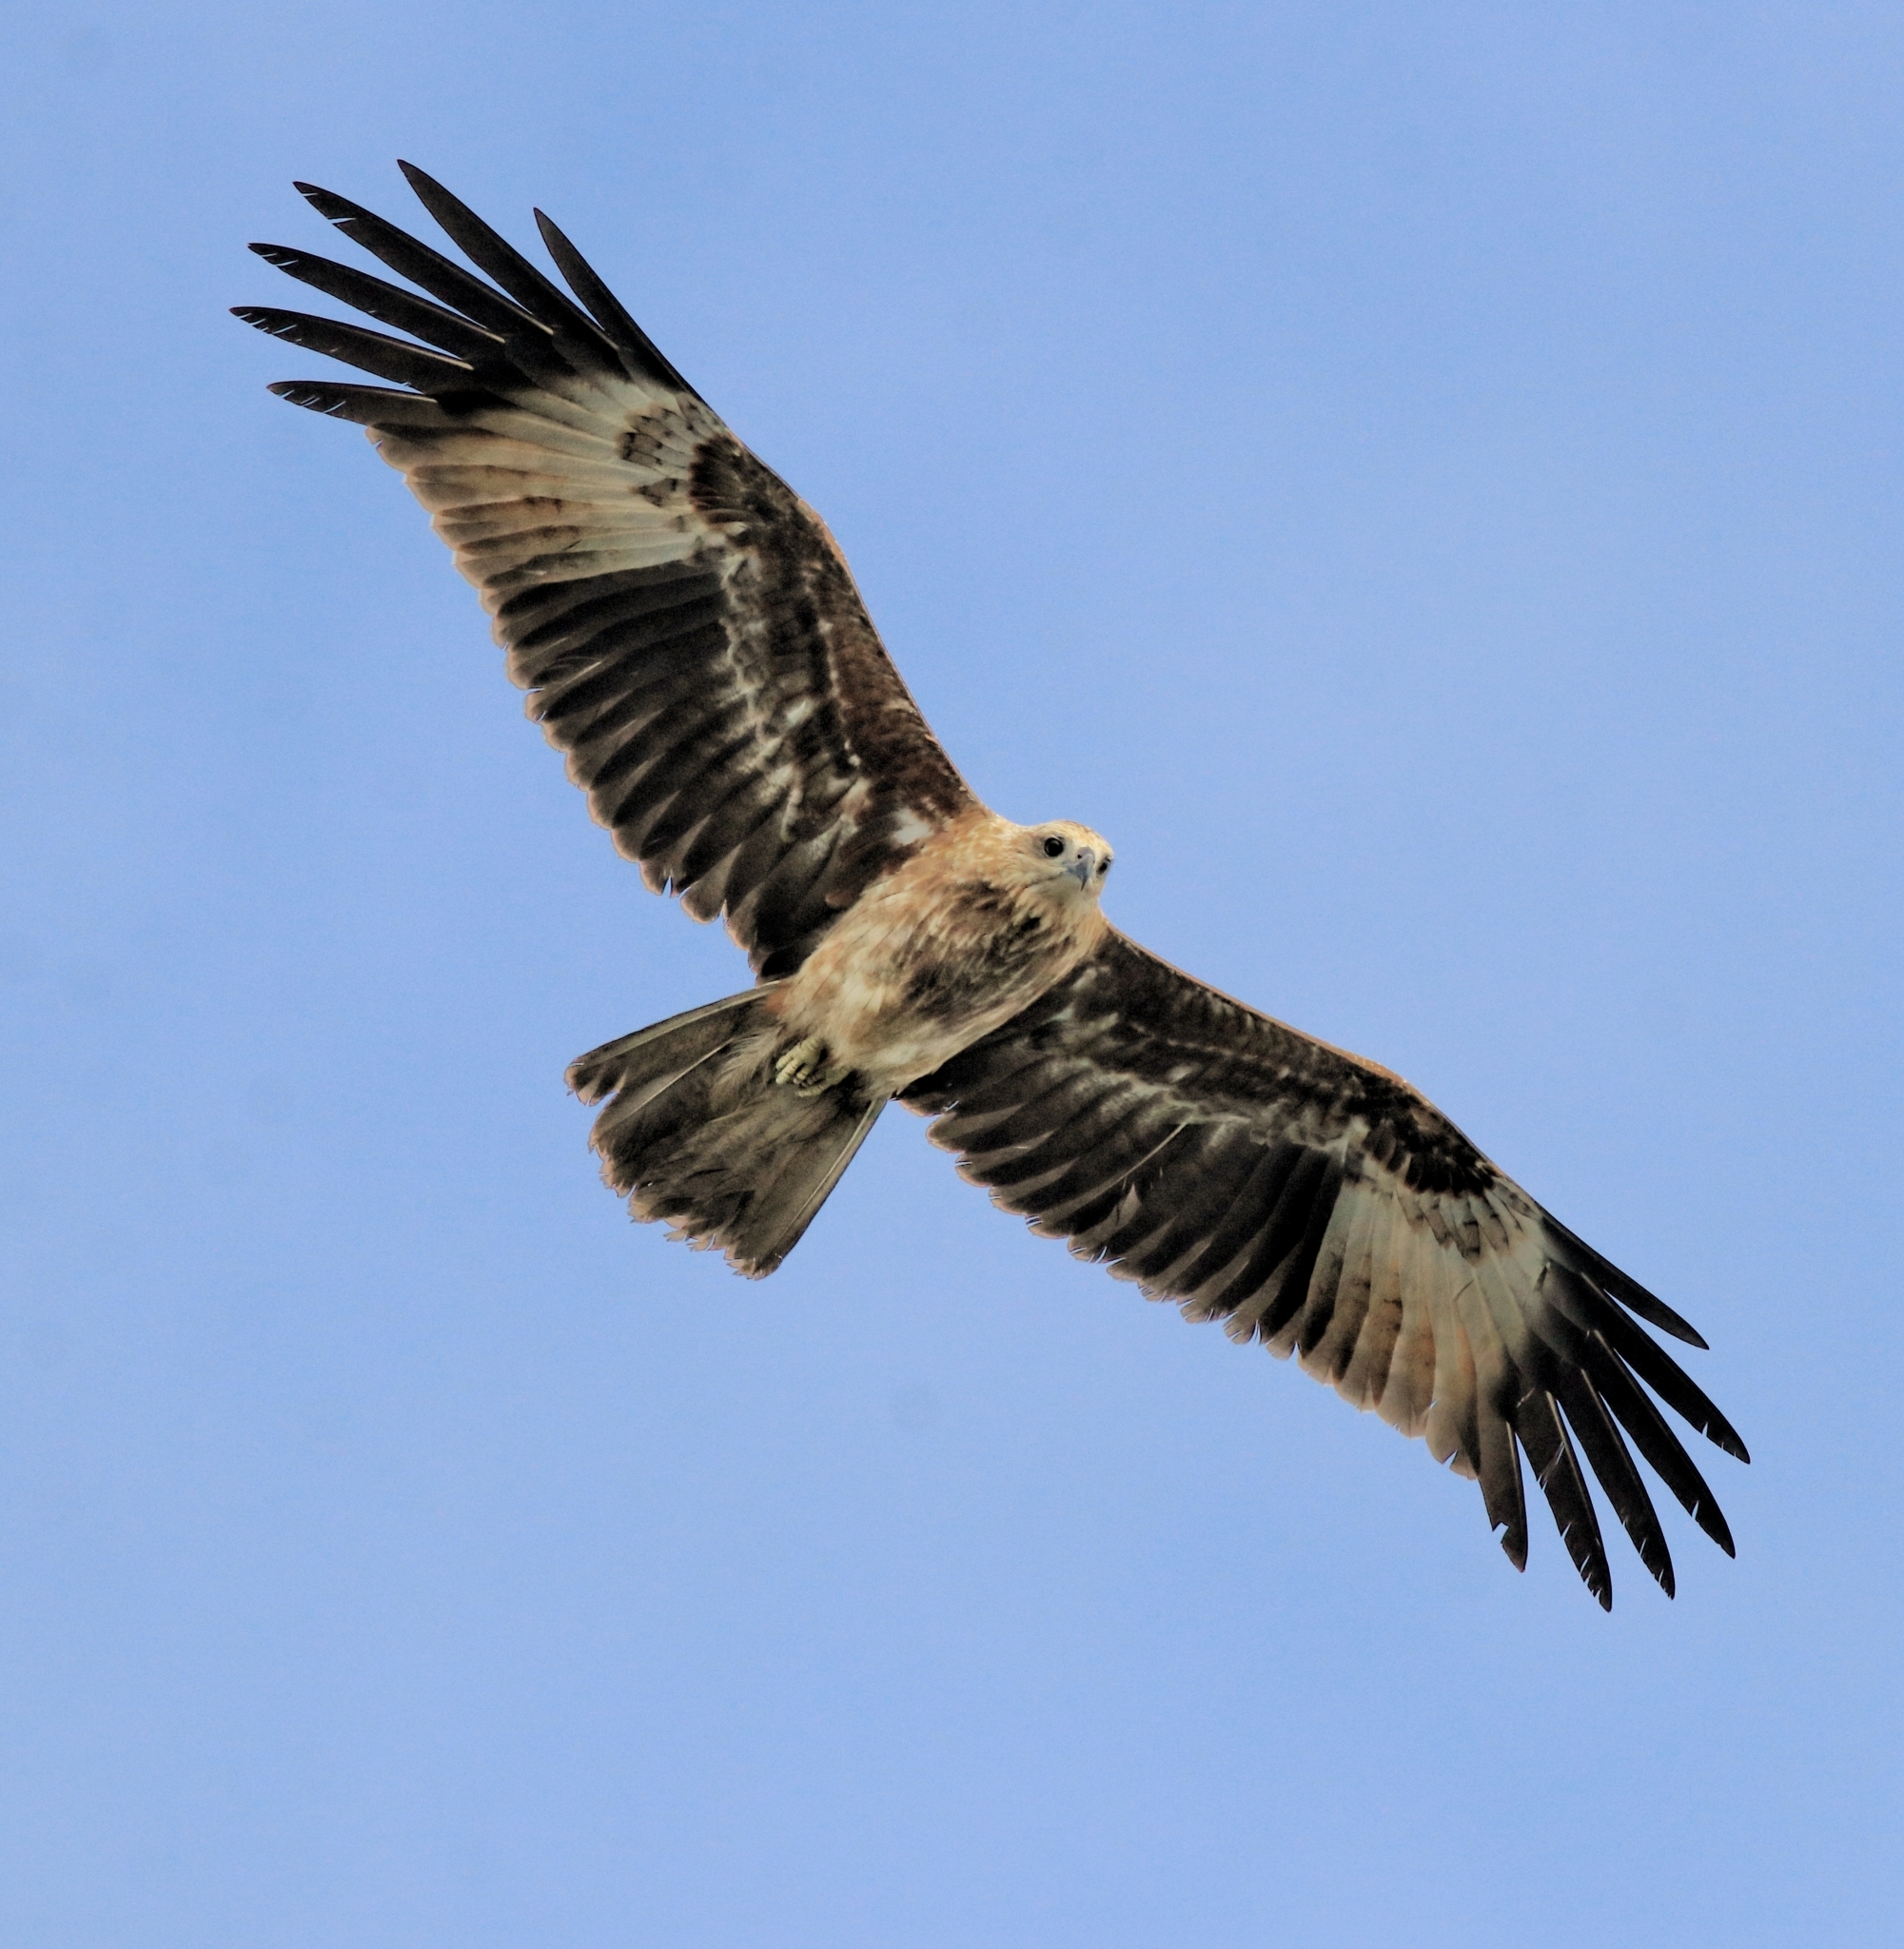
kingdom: Animalia
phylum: Chordata
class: Aves
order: Accipitriformes
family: Accipitridae
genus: Haliastur
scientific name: Haliastur indus
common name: Brahminy kite
